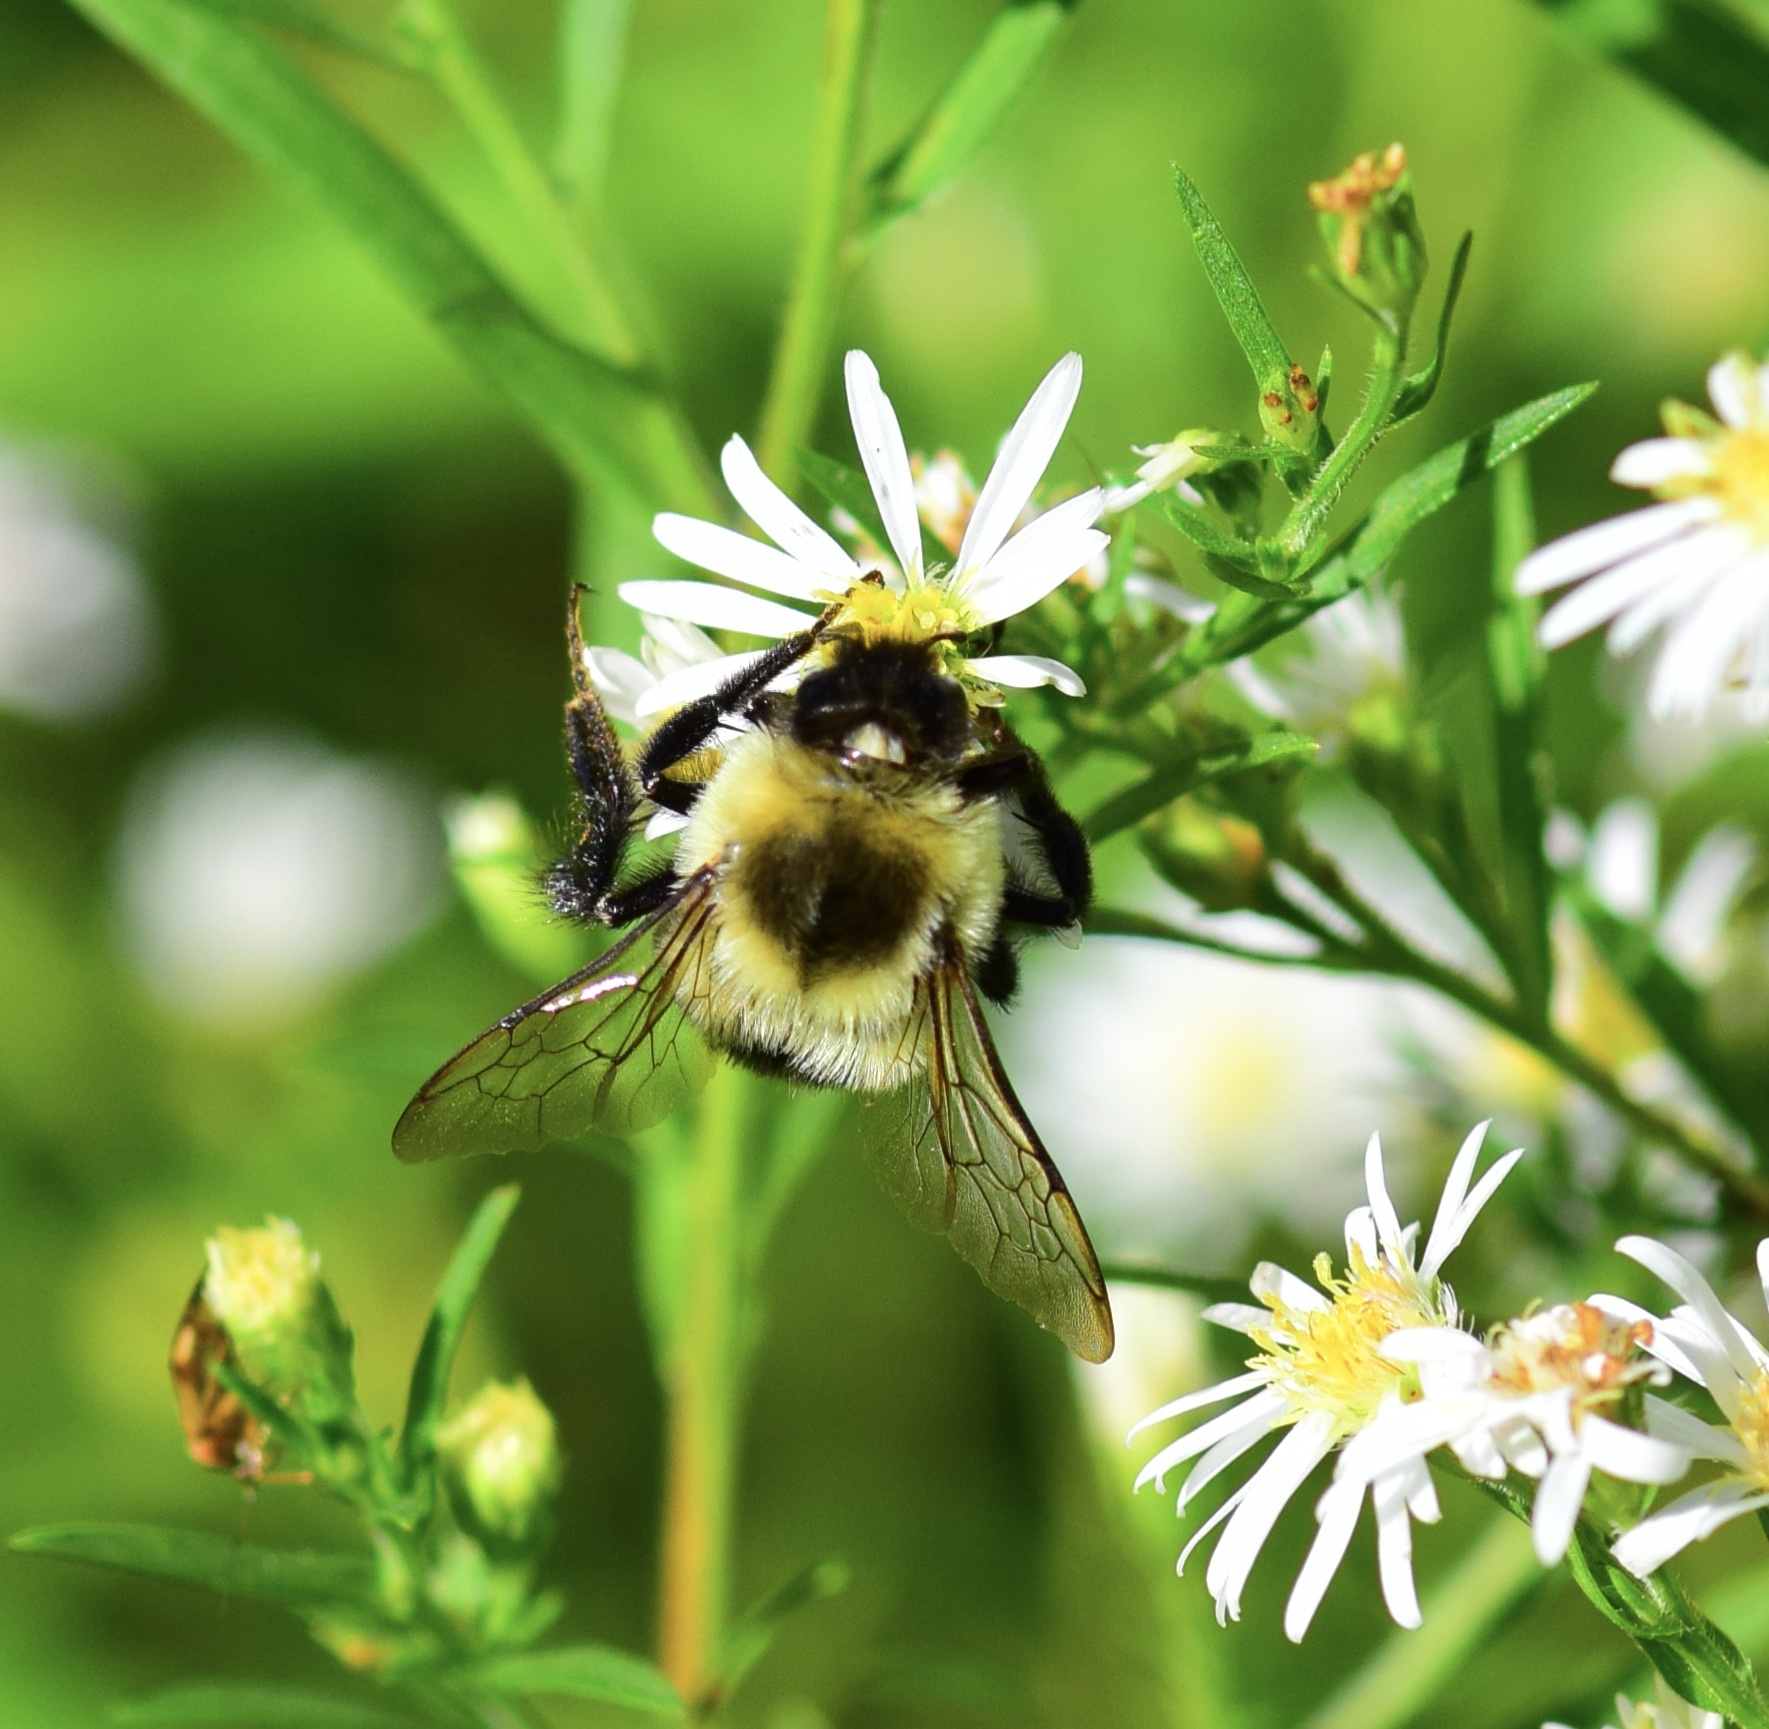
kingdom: Animalia
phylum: Arthropoda
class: Insecta
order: Hymenoptera
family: Apidae
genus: Bombus
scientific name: Bombus impatiens
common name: Common eastern bumble bee
